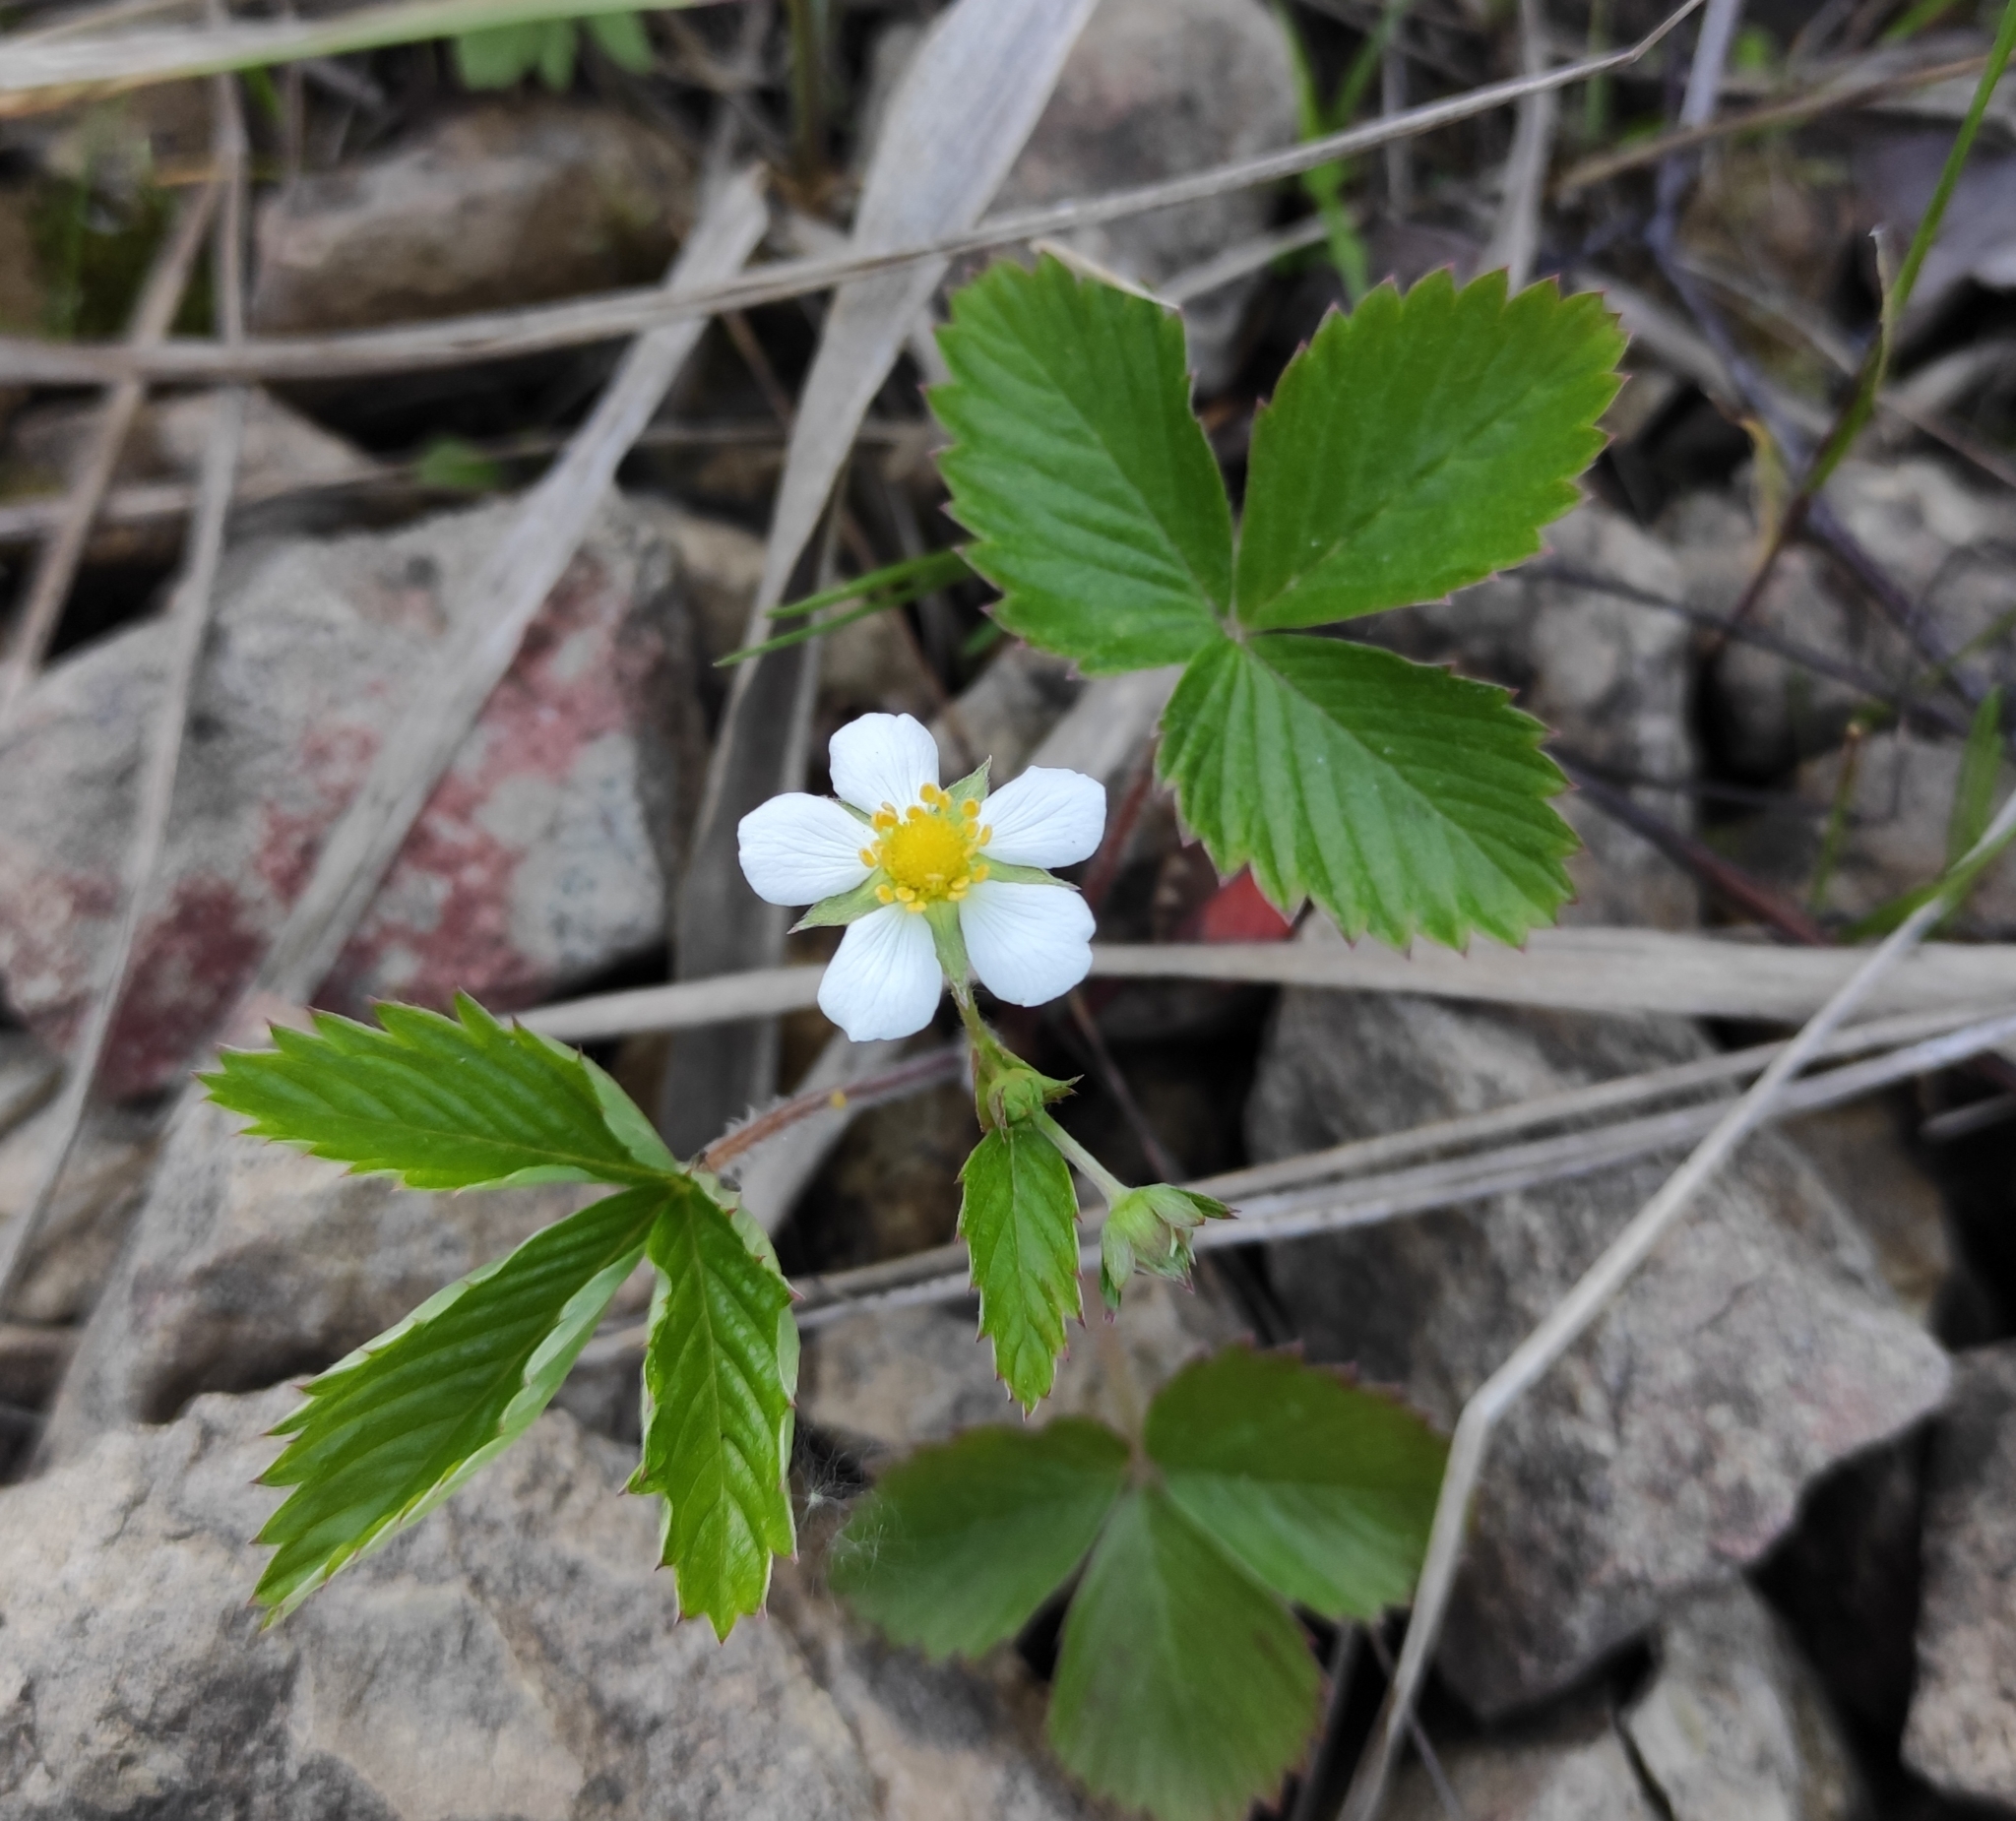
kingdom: Plantae
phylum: Tracheophyta
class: Magnoliopsida
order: Rosales
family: Rosaceae
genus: Fragaria
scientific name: Fragaria vesca
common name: Wild strawberry
